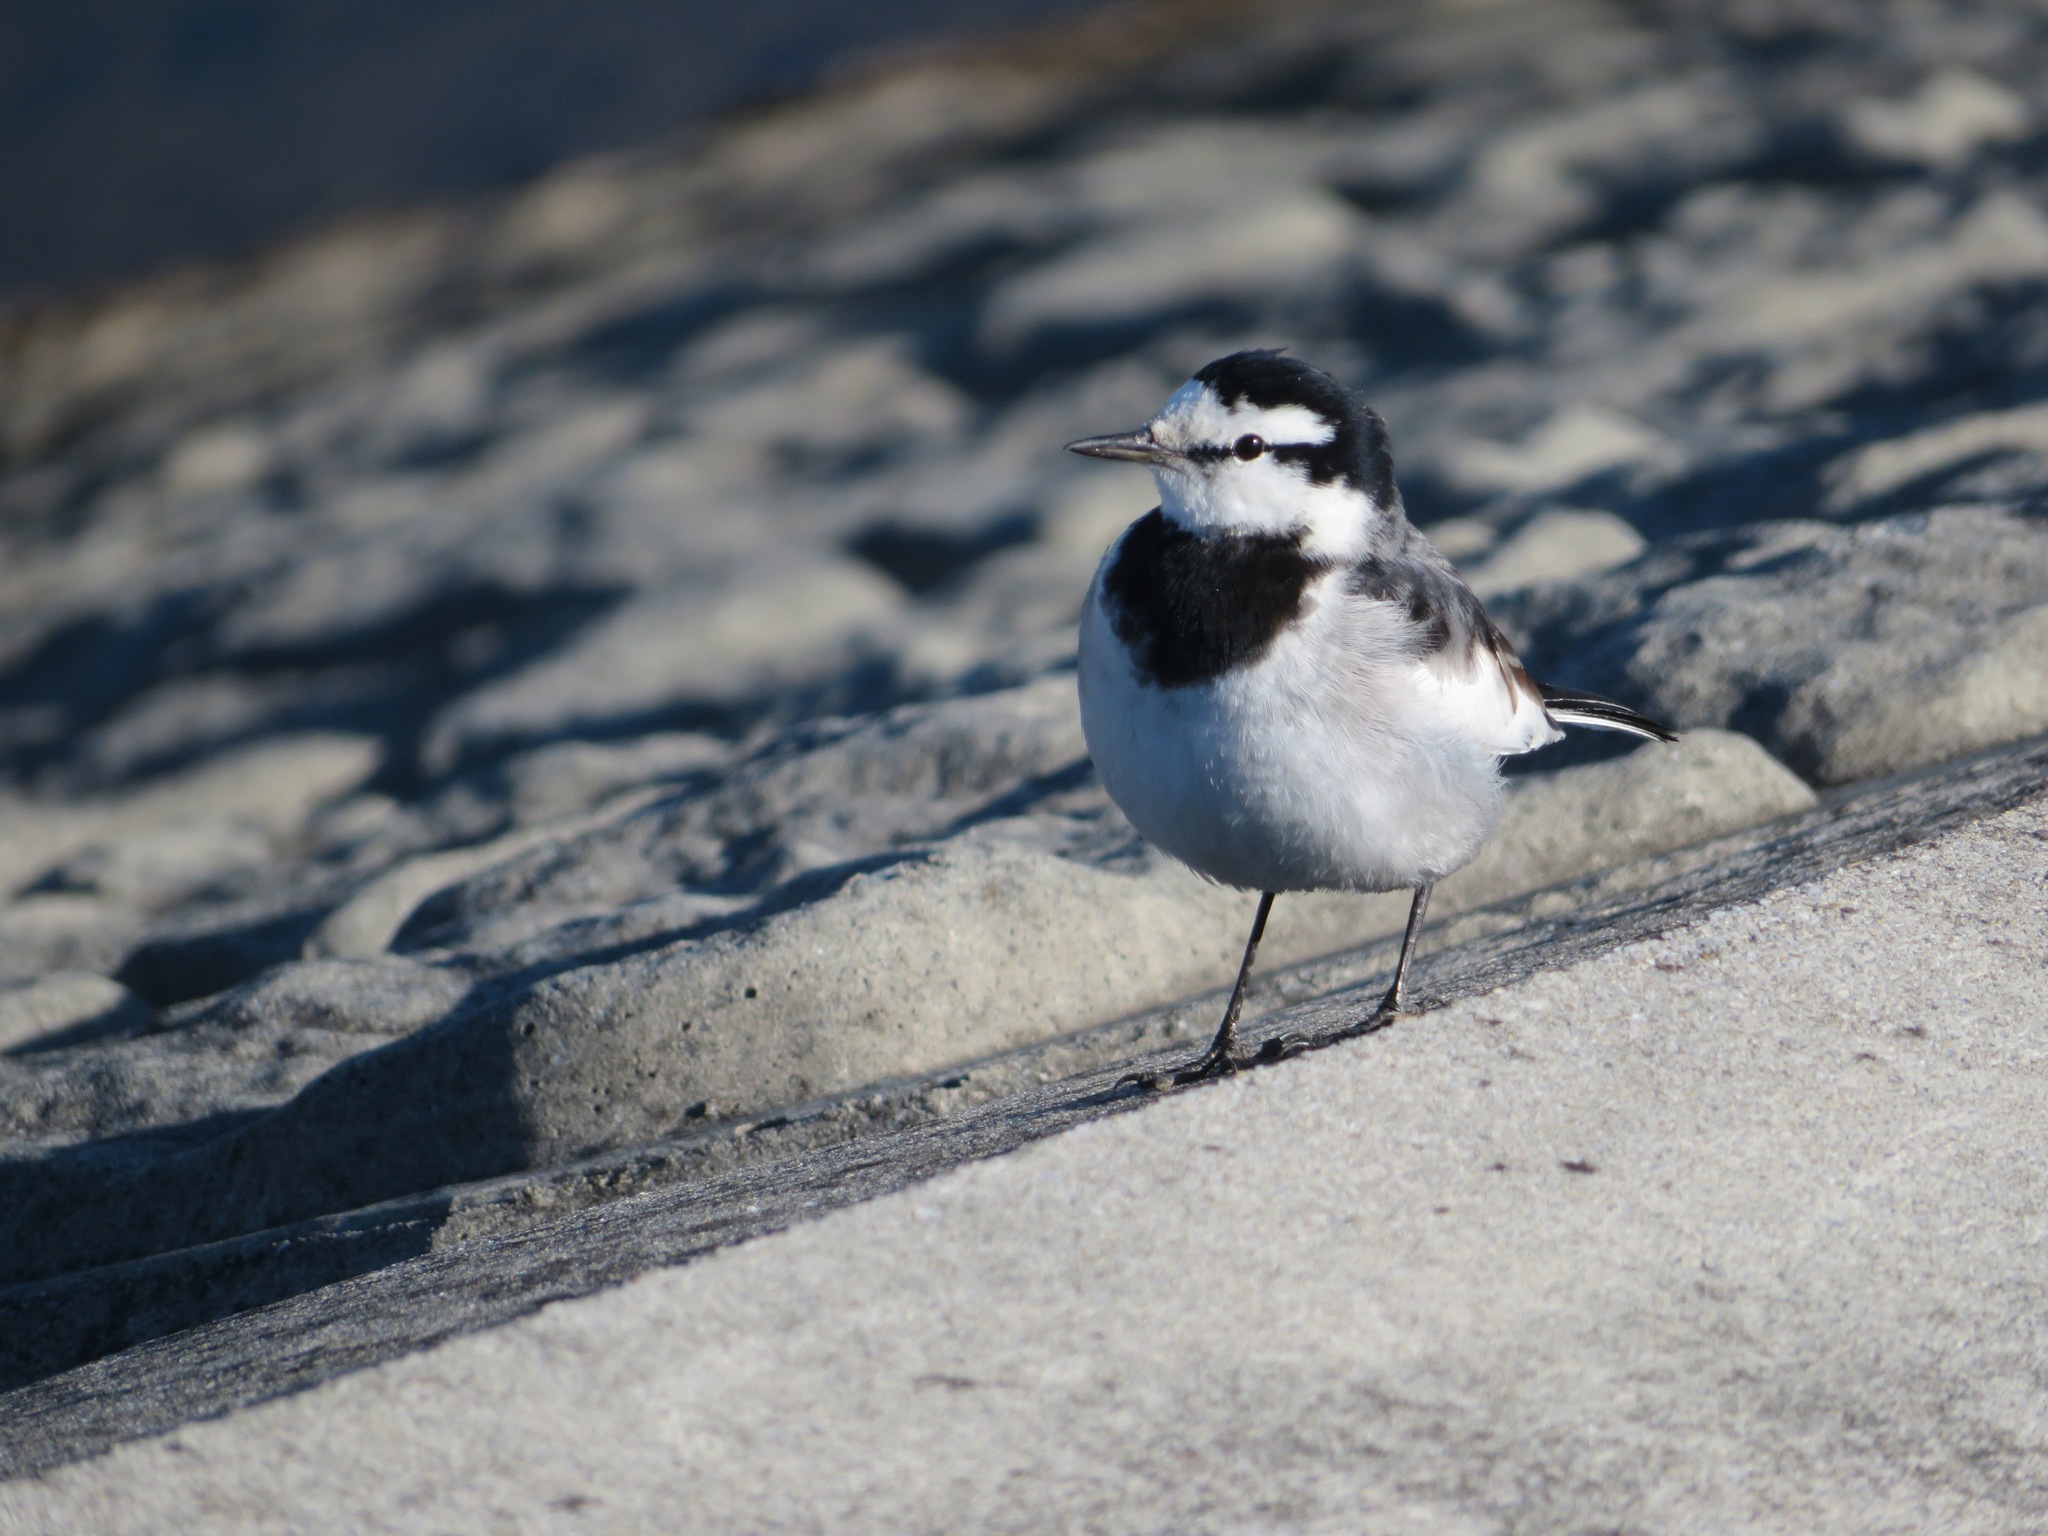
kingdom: Animalia
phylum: Chordata
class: Aves
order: Passeriformes
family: Motacillidae
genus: Motacilla
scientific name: Motacilla alba
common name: White wagtail
